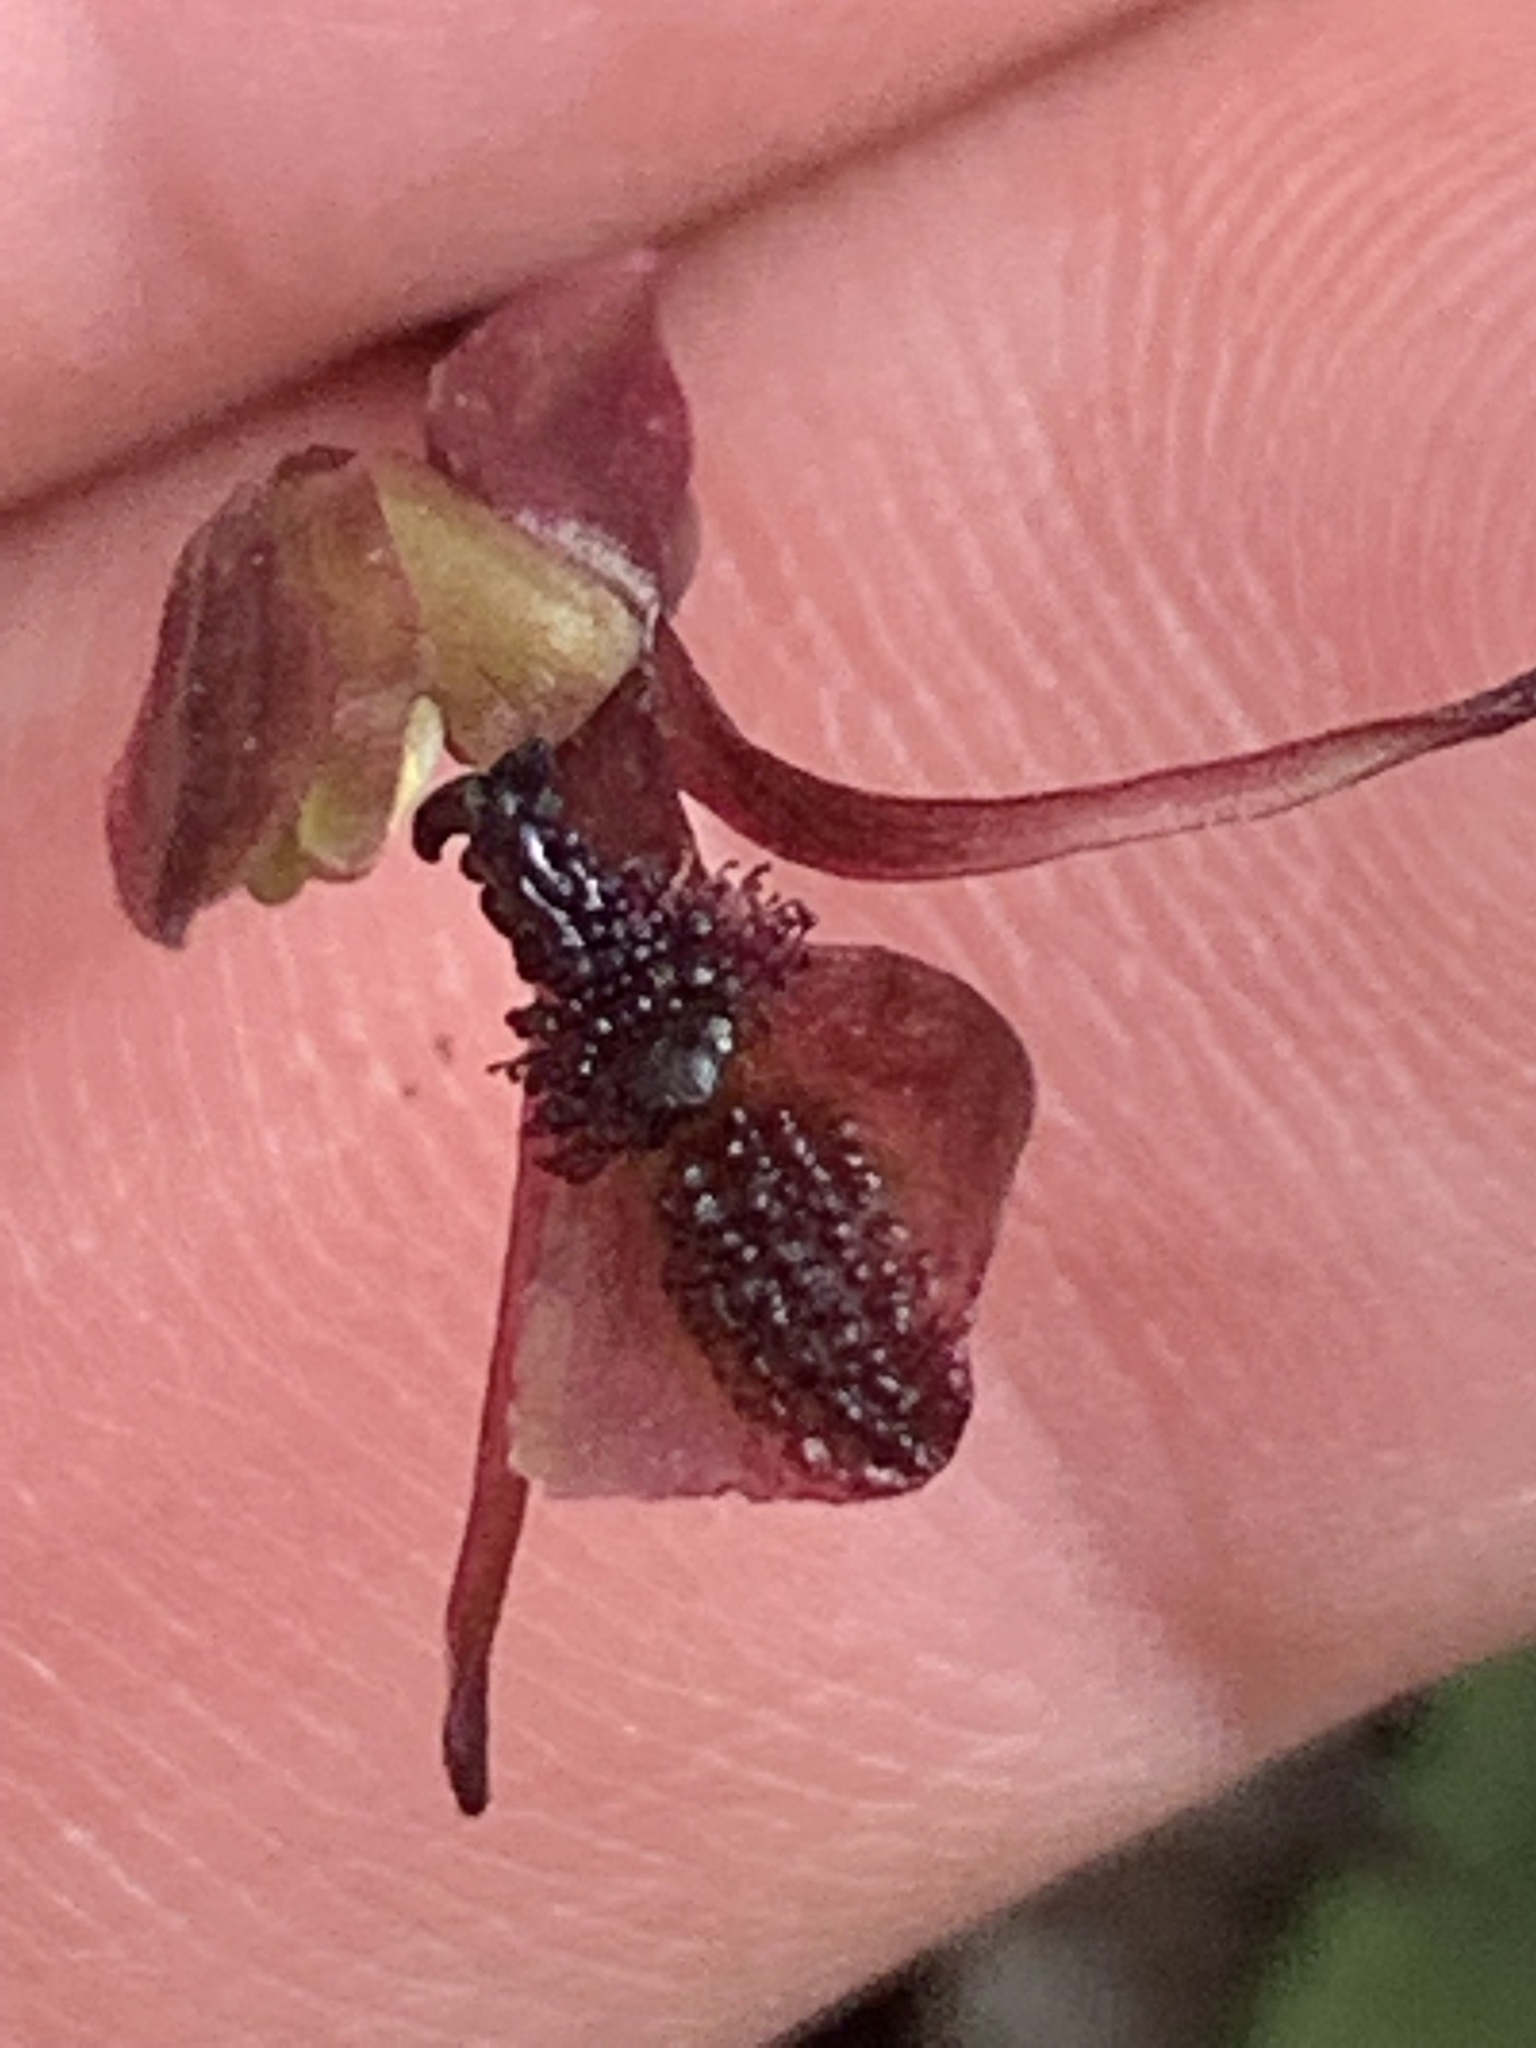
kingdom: Plantae
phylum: Tracheophyta
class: Liliopsida
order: Asparagales
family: Orchidaceae
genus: Chiloglottis
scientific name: Chiloglottis formicifera
